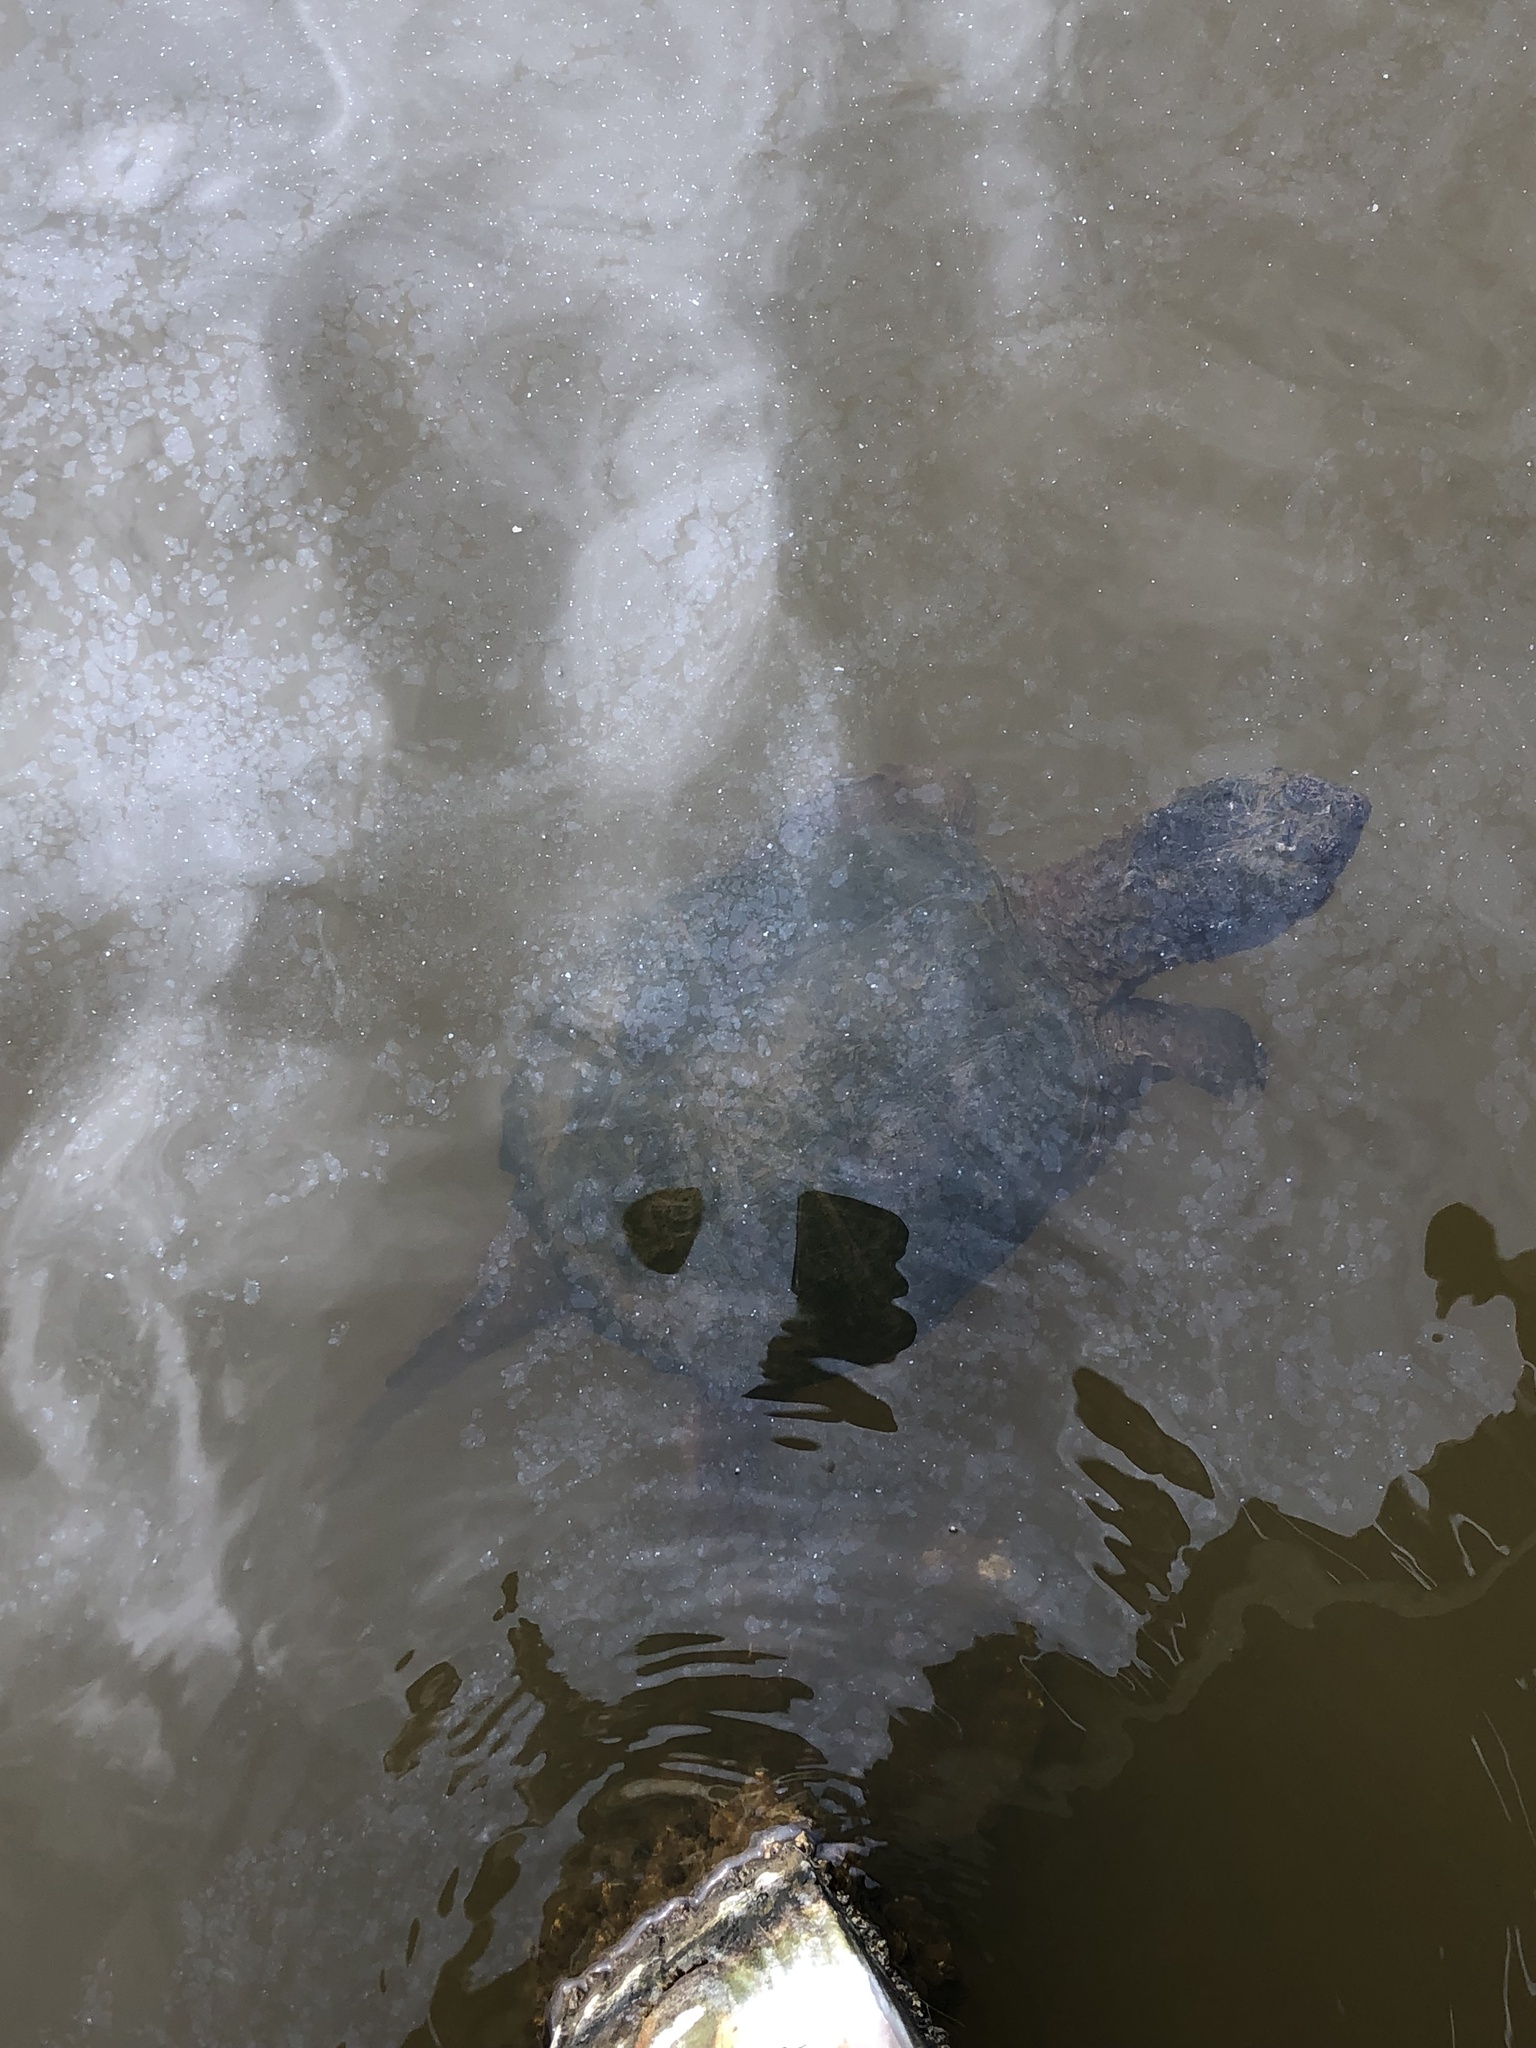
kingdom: Animalia
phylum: Chordata
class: Testudines
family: Chelydridae
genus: Chelydra
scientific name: Chelydra serpentina
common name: Common snapping turtle
